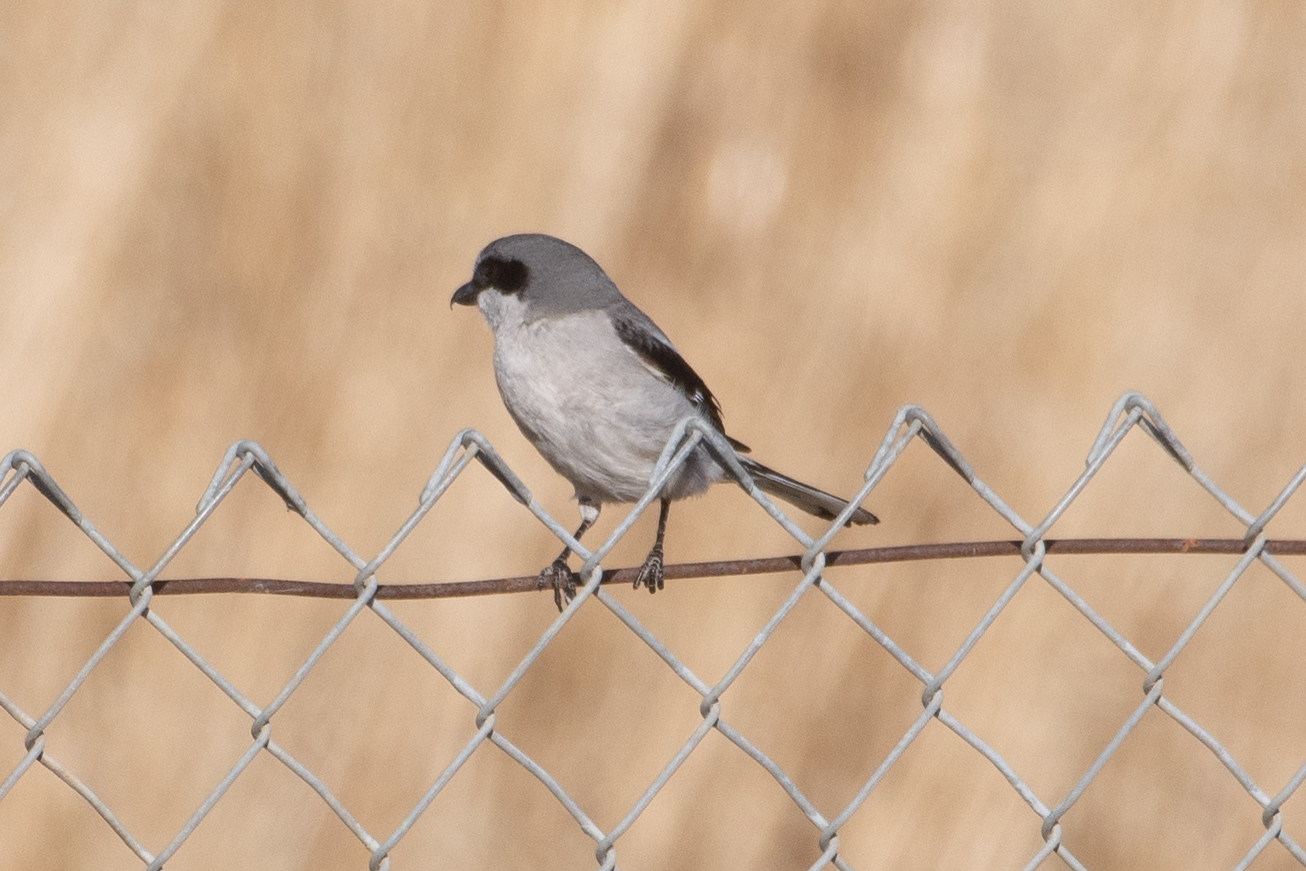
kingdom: Animalia
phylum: Chordata
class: Aves
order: Passeriformes
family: Laniidae
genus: Lanius
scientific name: Lanius ludovicianus
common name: Loggerhead shrike
